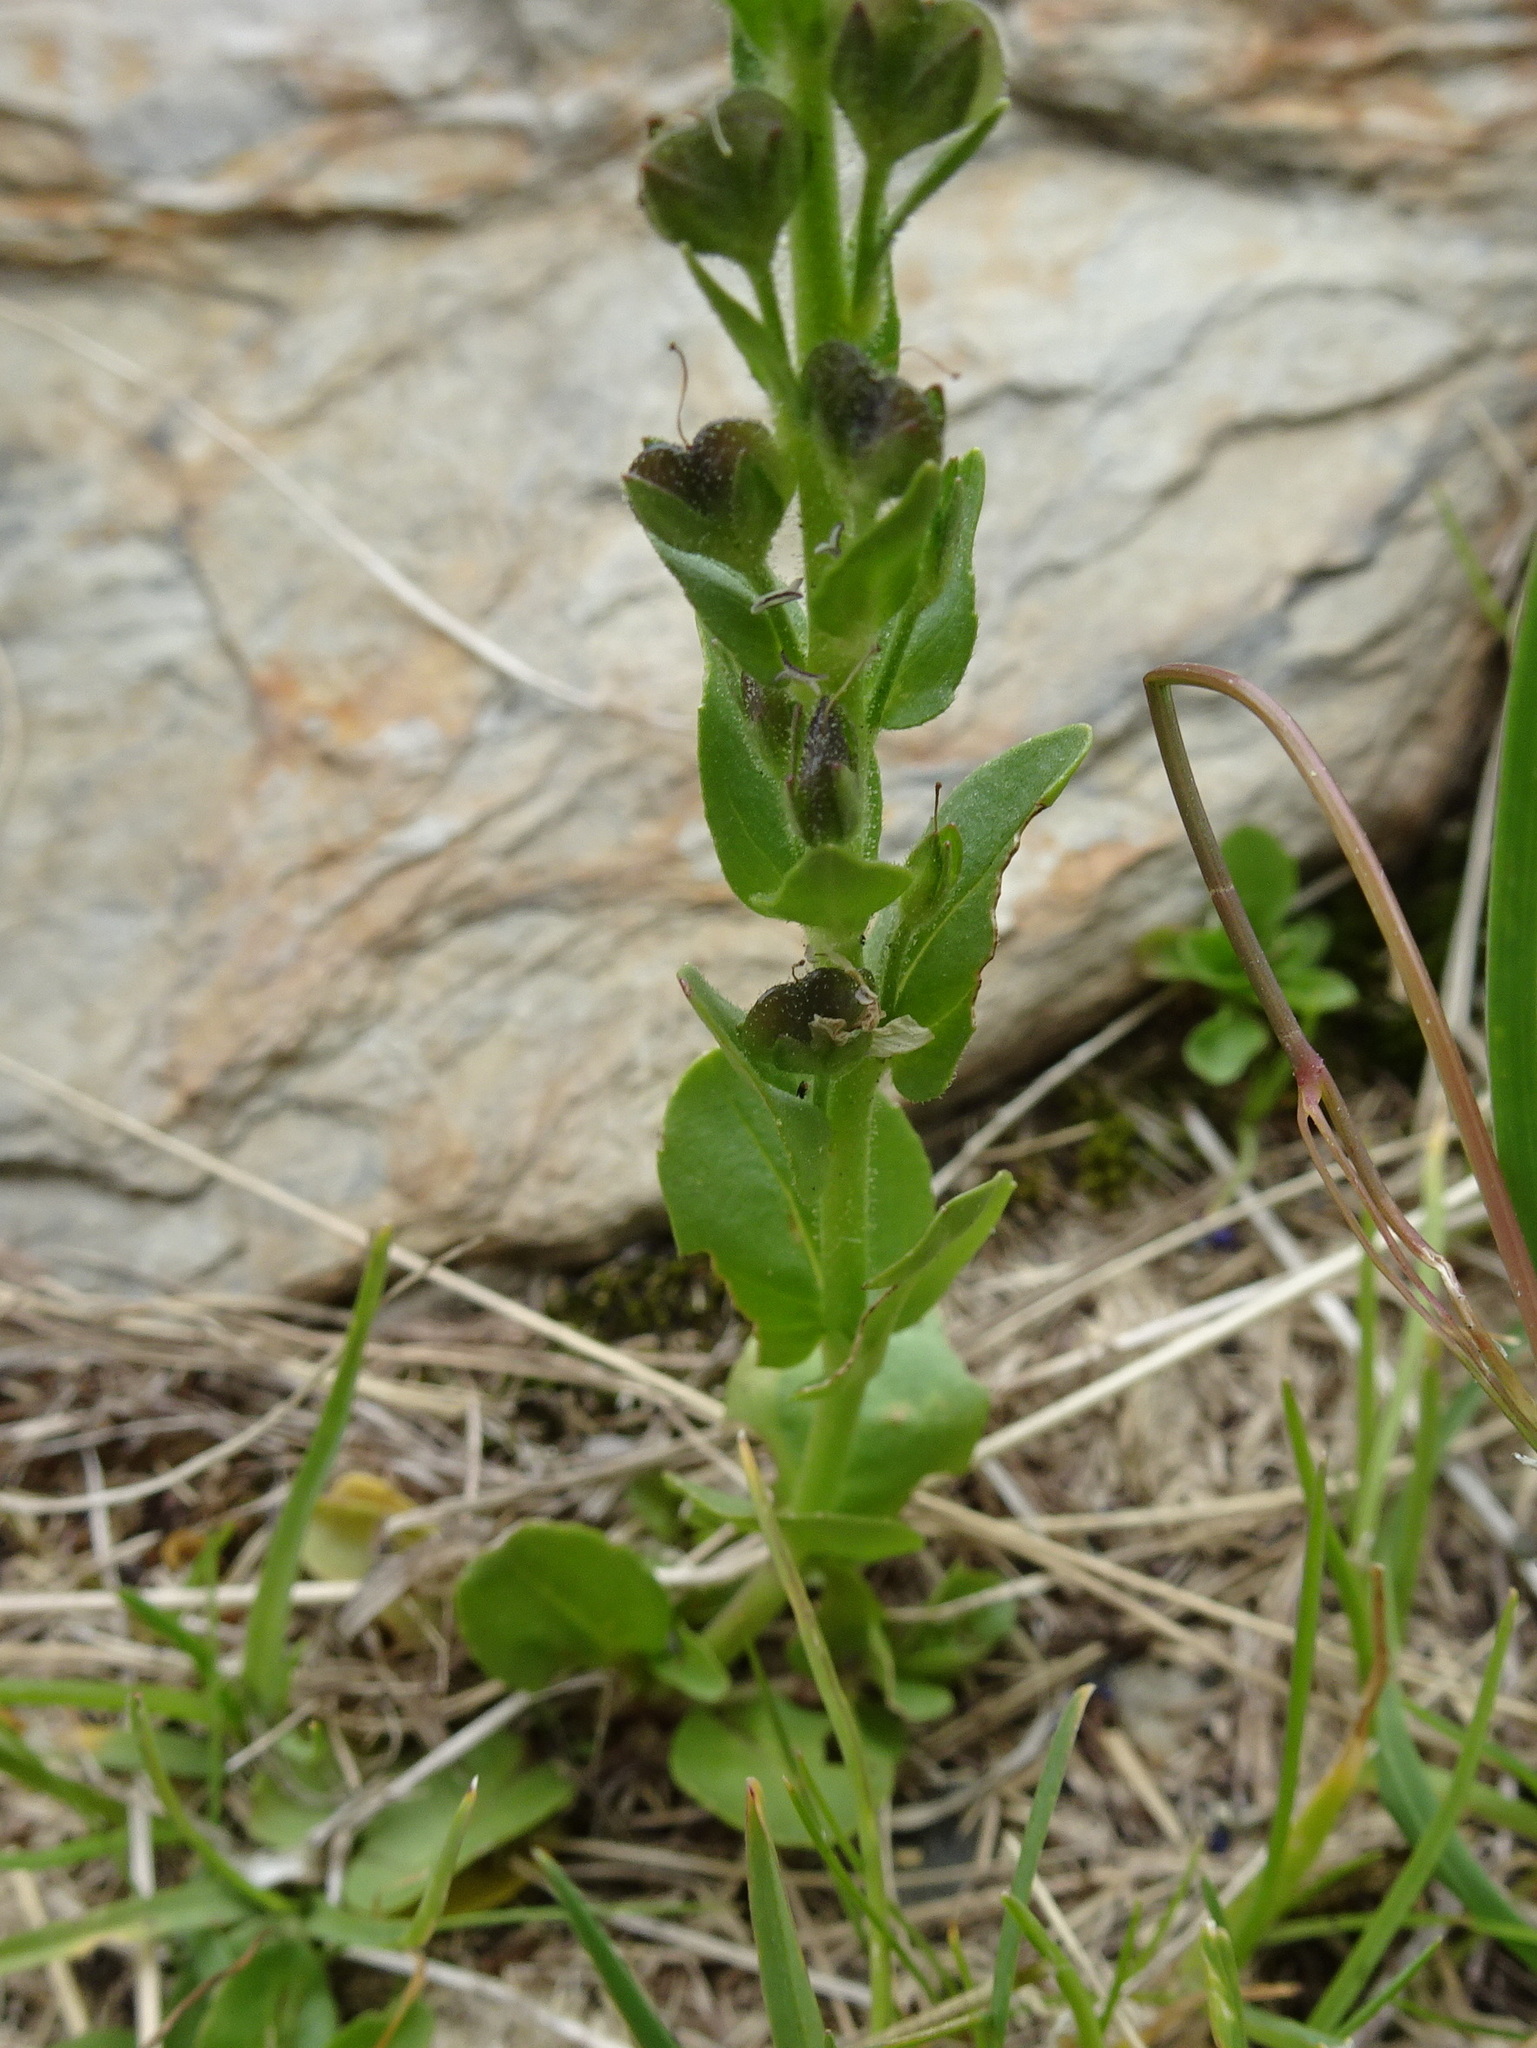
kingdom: Plantae
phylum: Tracheophyta
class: Magnoliopsida
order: Lamiales
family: Plantaginaceae
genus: Veronica
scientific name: Veronica serpyllifolia
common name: Thyme-leaved speedwell
